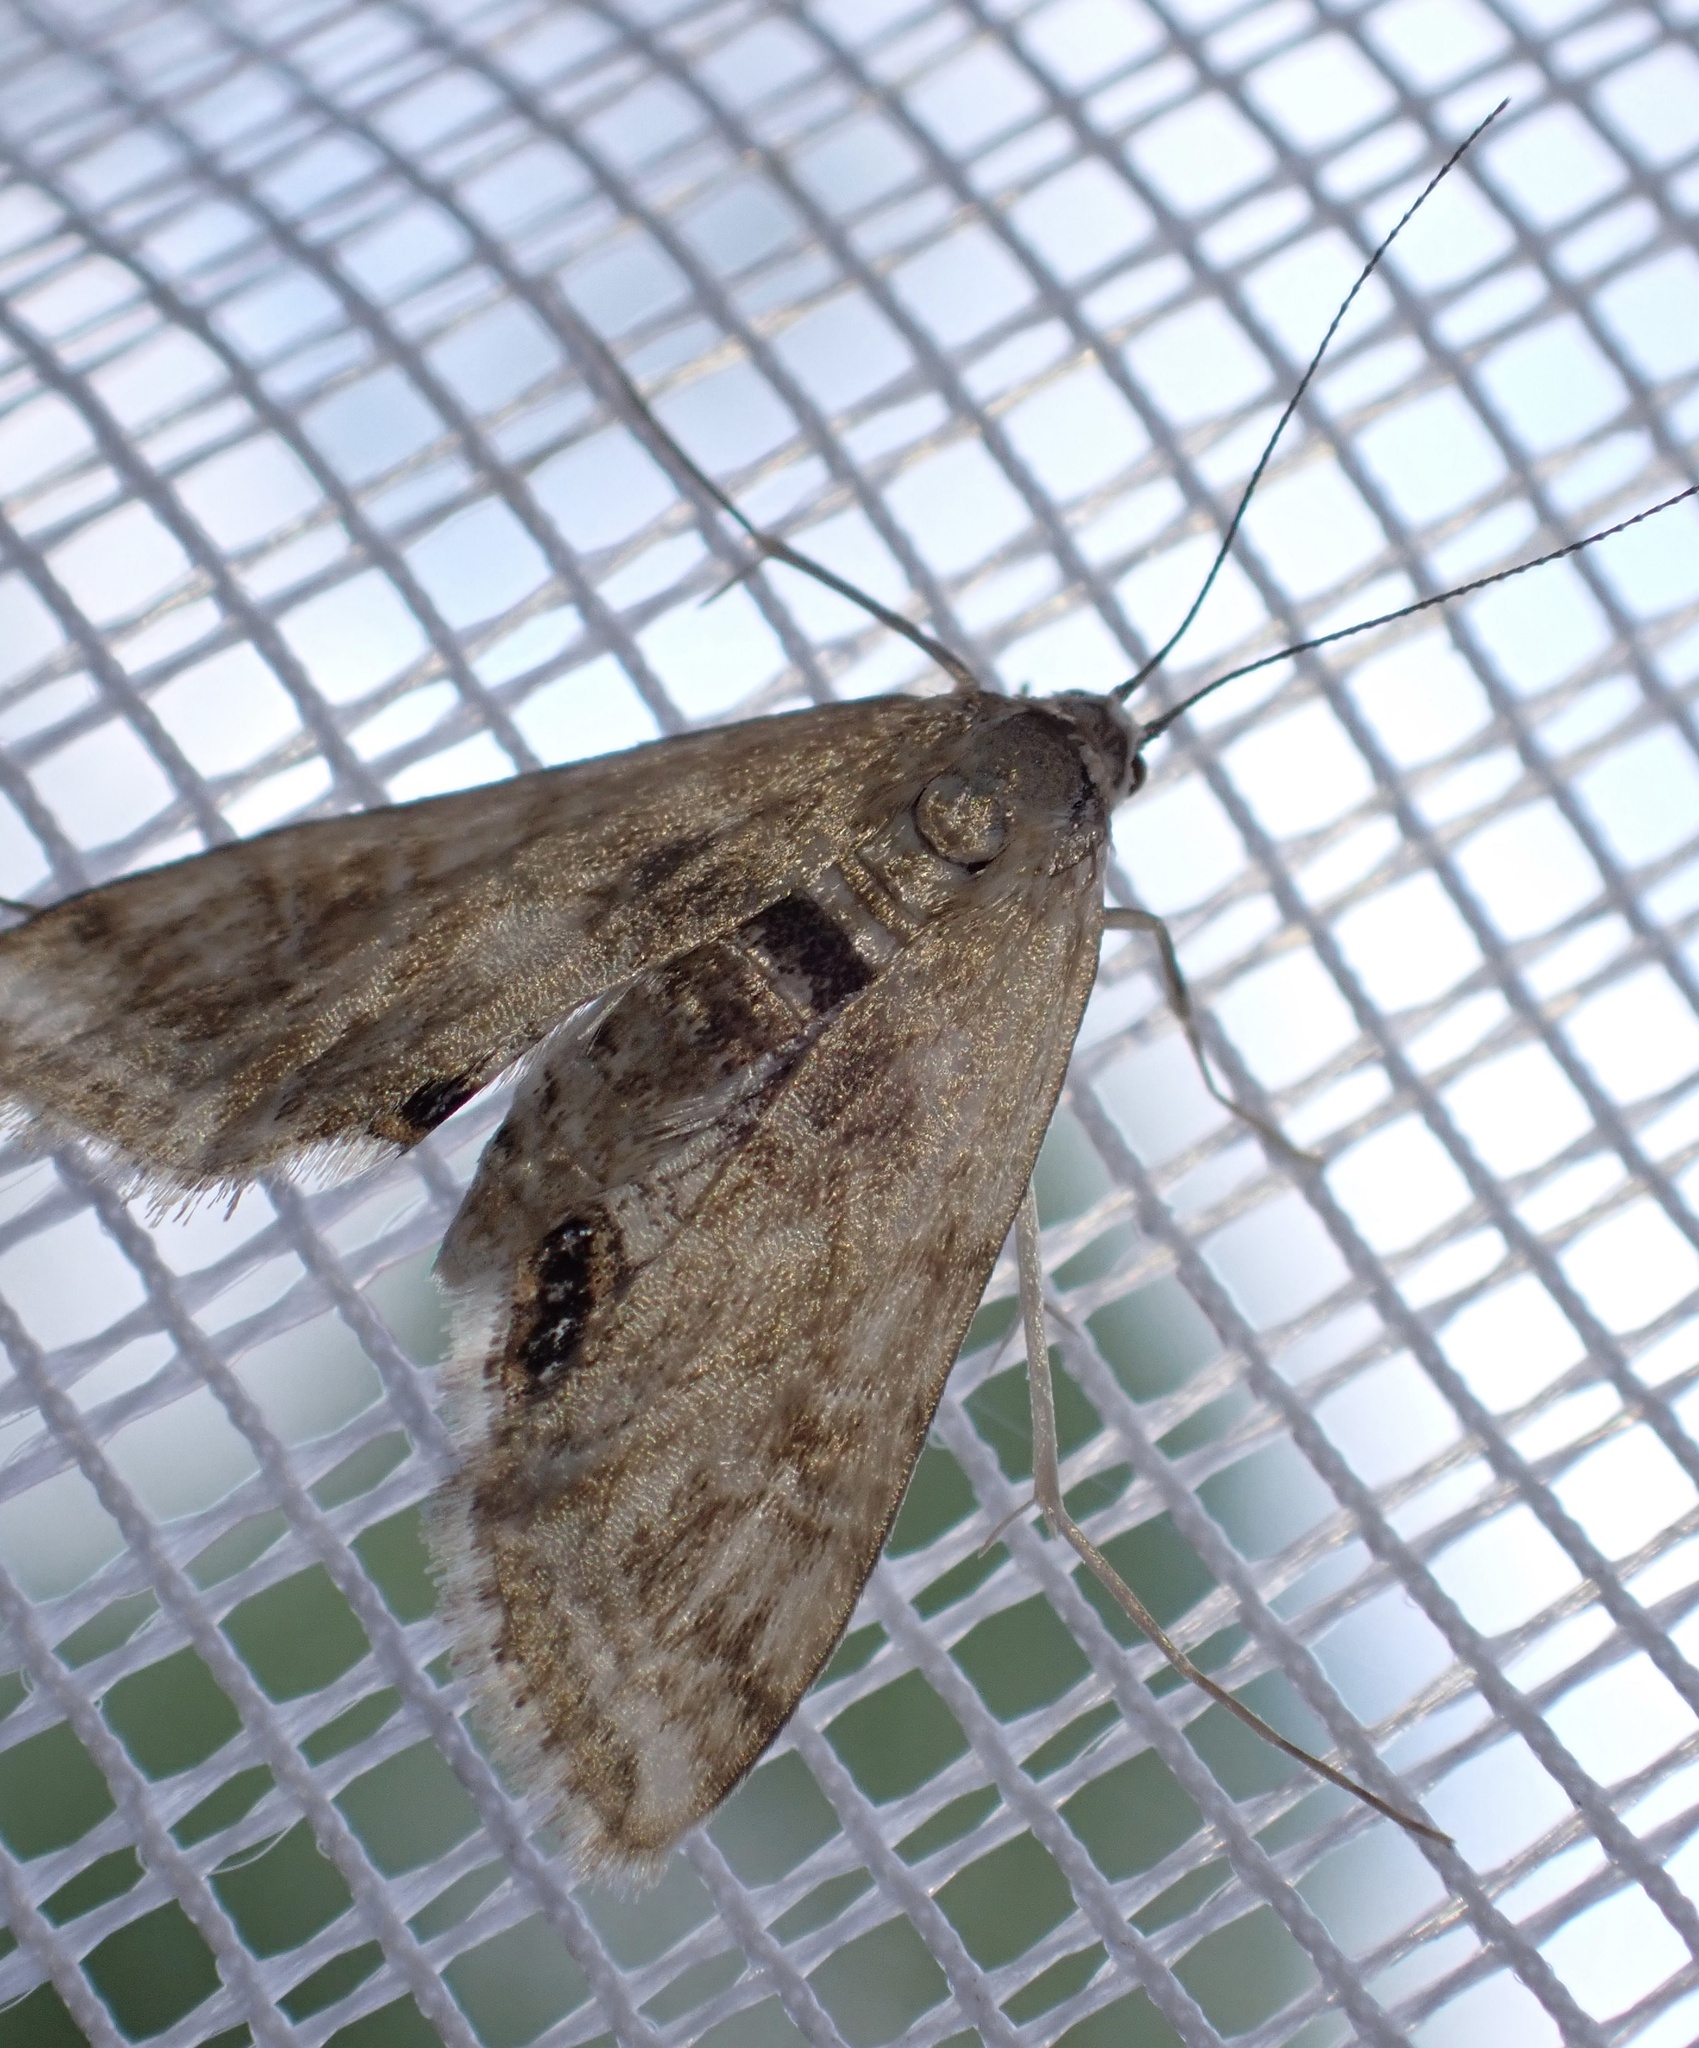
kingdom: Animalia
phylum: Arthropoda
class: Insecta
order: Lepidoptera
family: Crambidae
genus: Cataclysta
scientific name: Cataclysta lemnata
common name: Small china-mark
